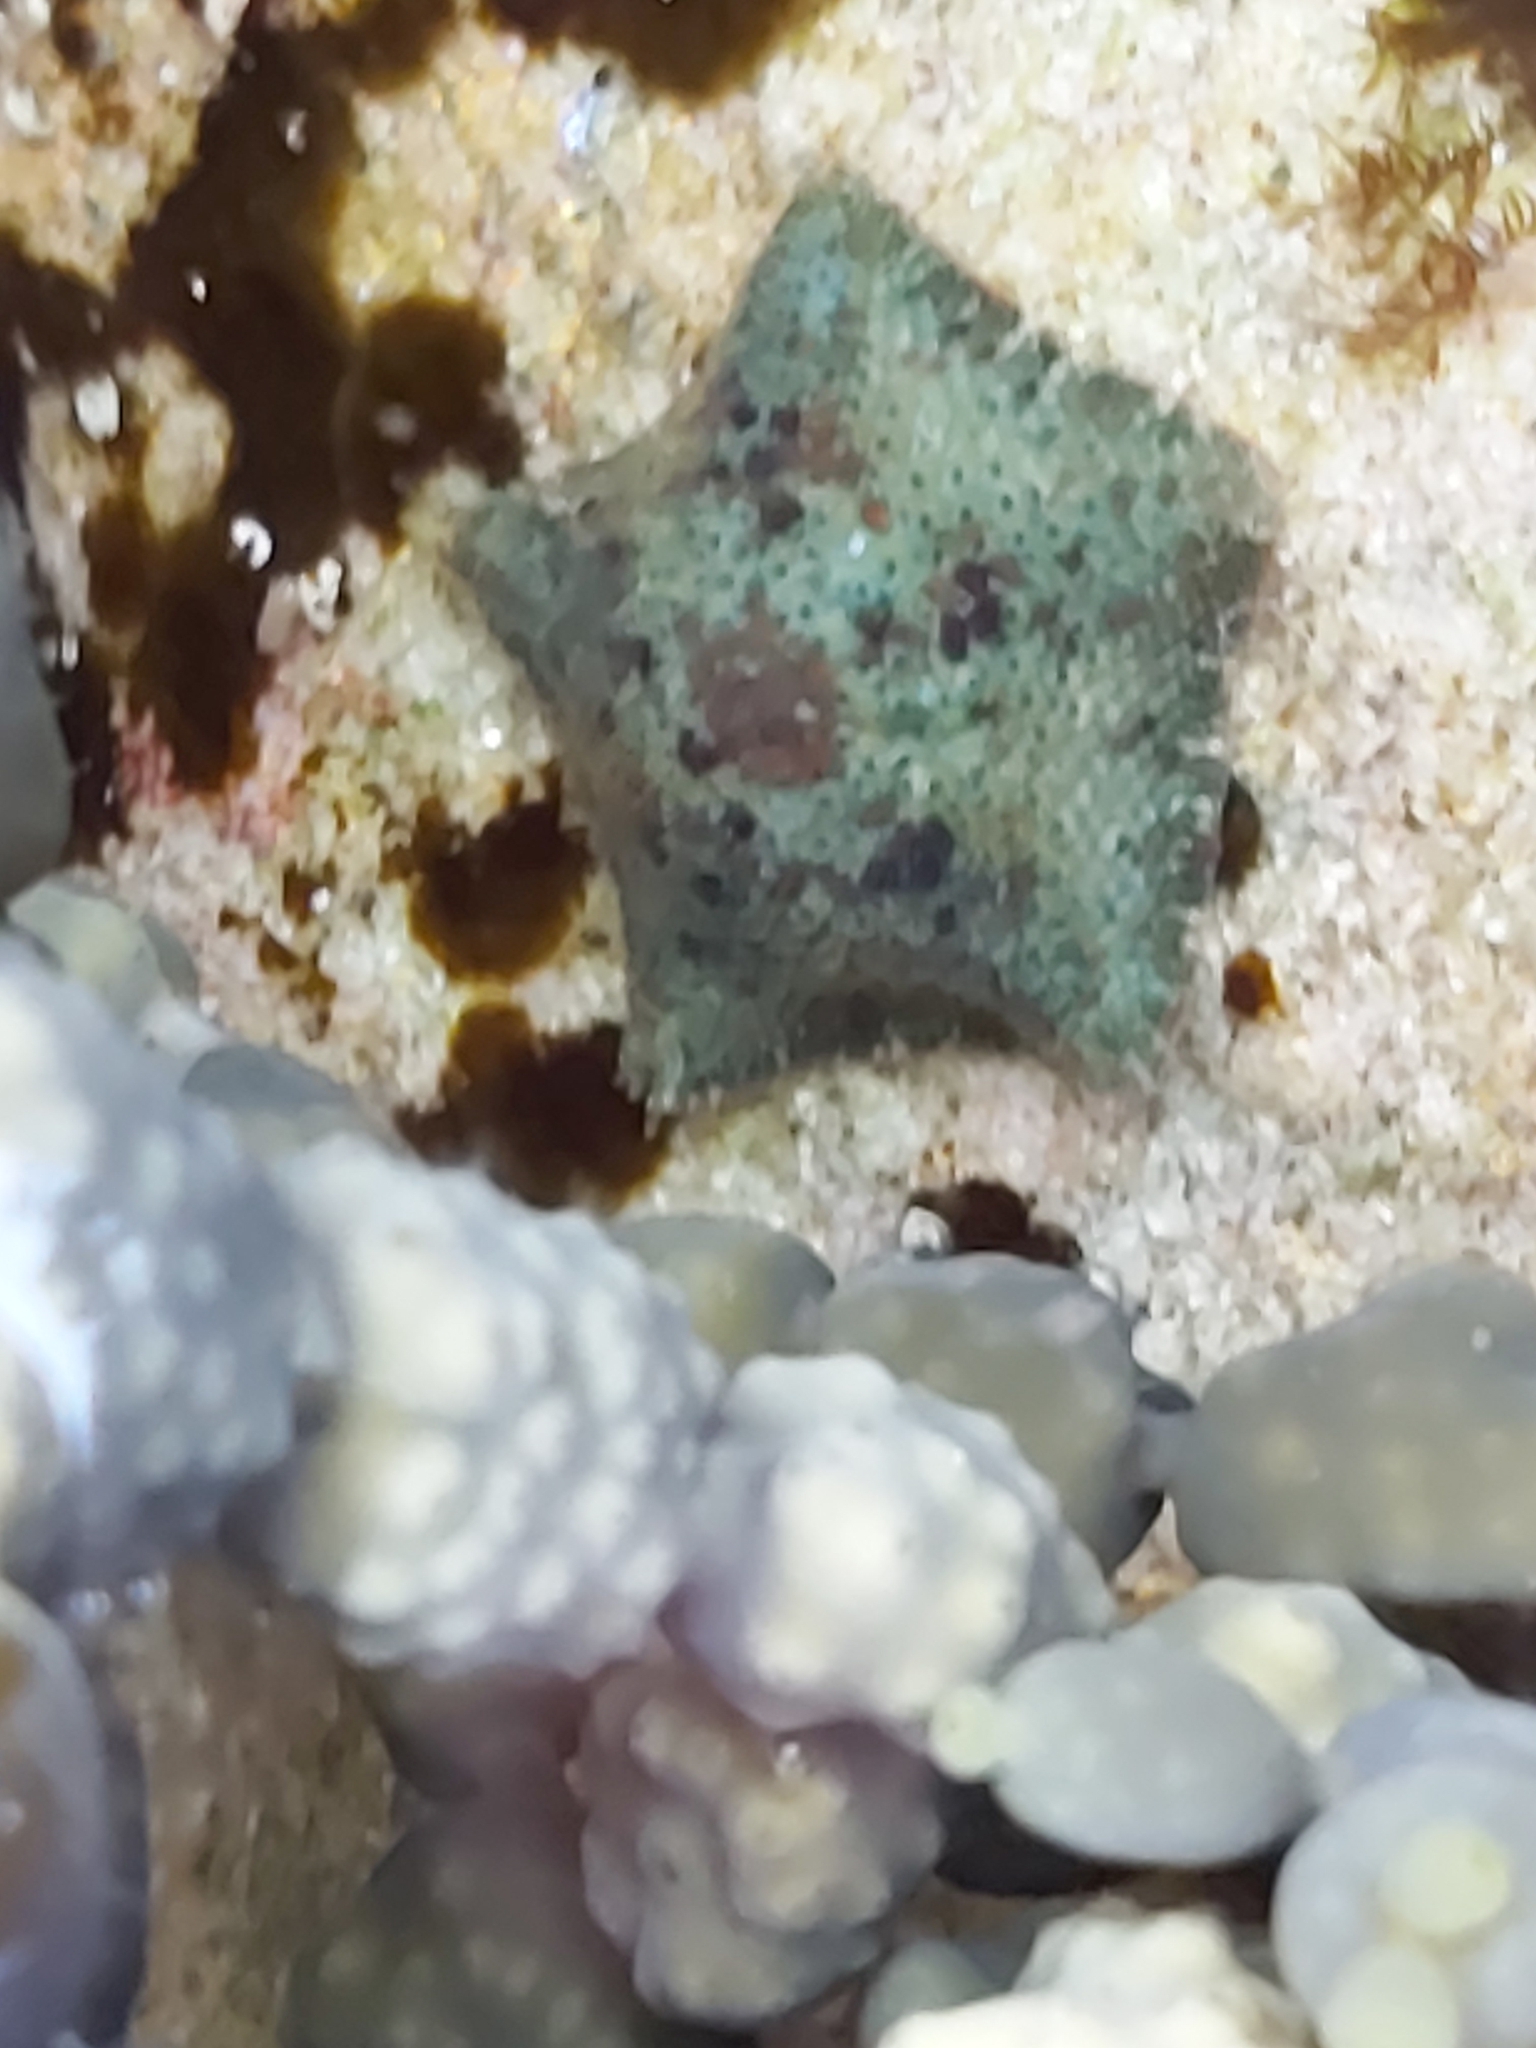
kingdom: Animalia
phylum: Echinodermata
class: Asteroidea
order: Valvatida
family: Asterinidae
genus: Parvulastra
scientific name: Parvulastra exigua
